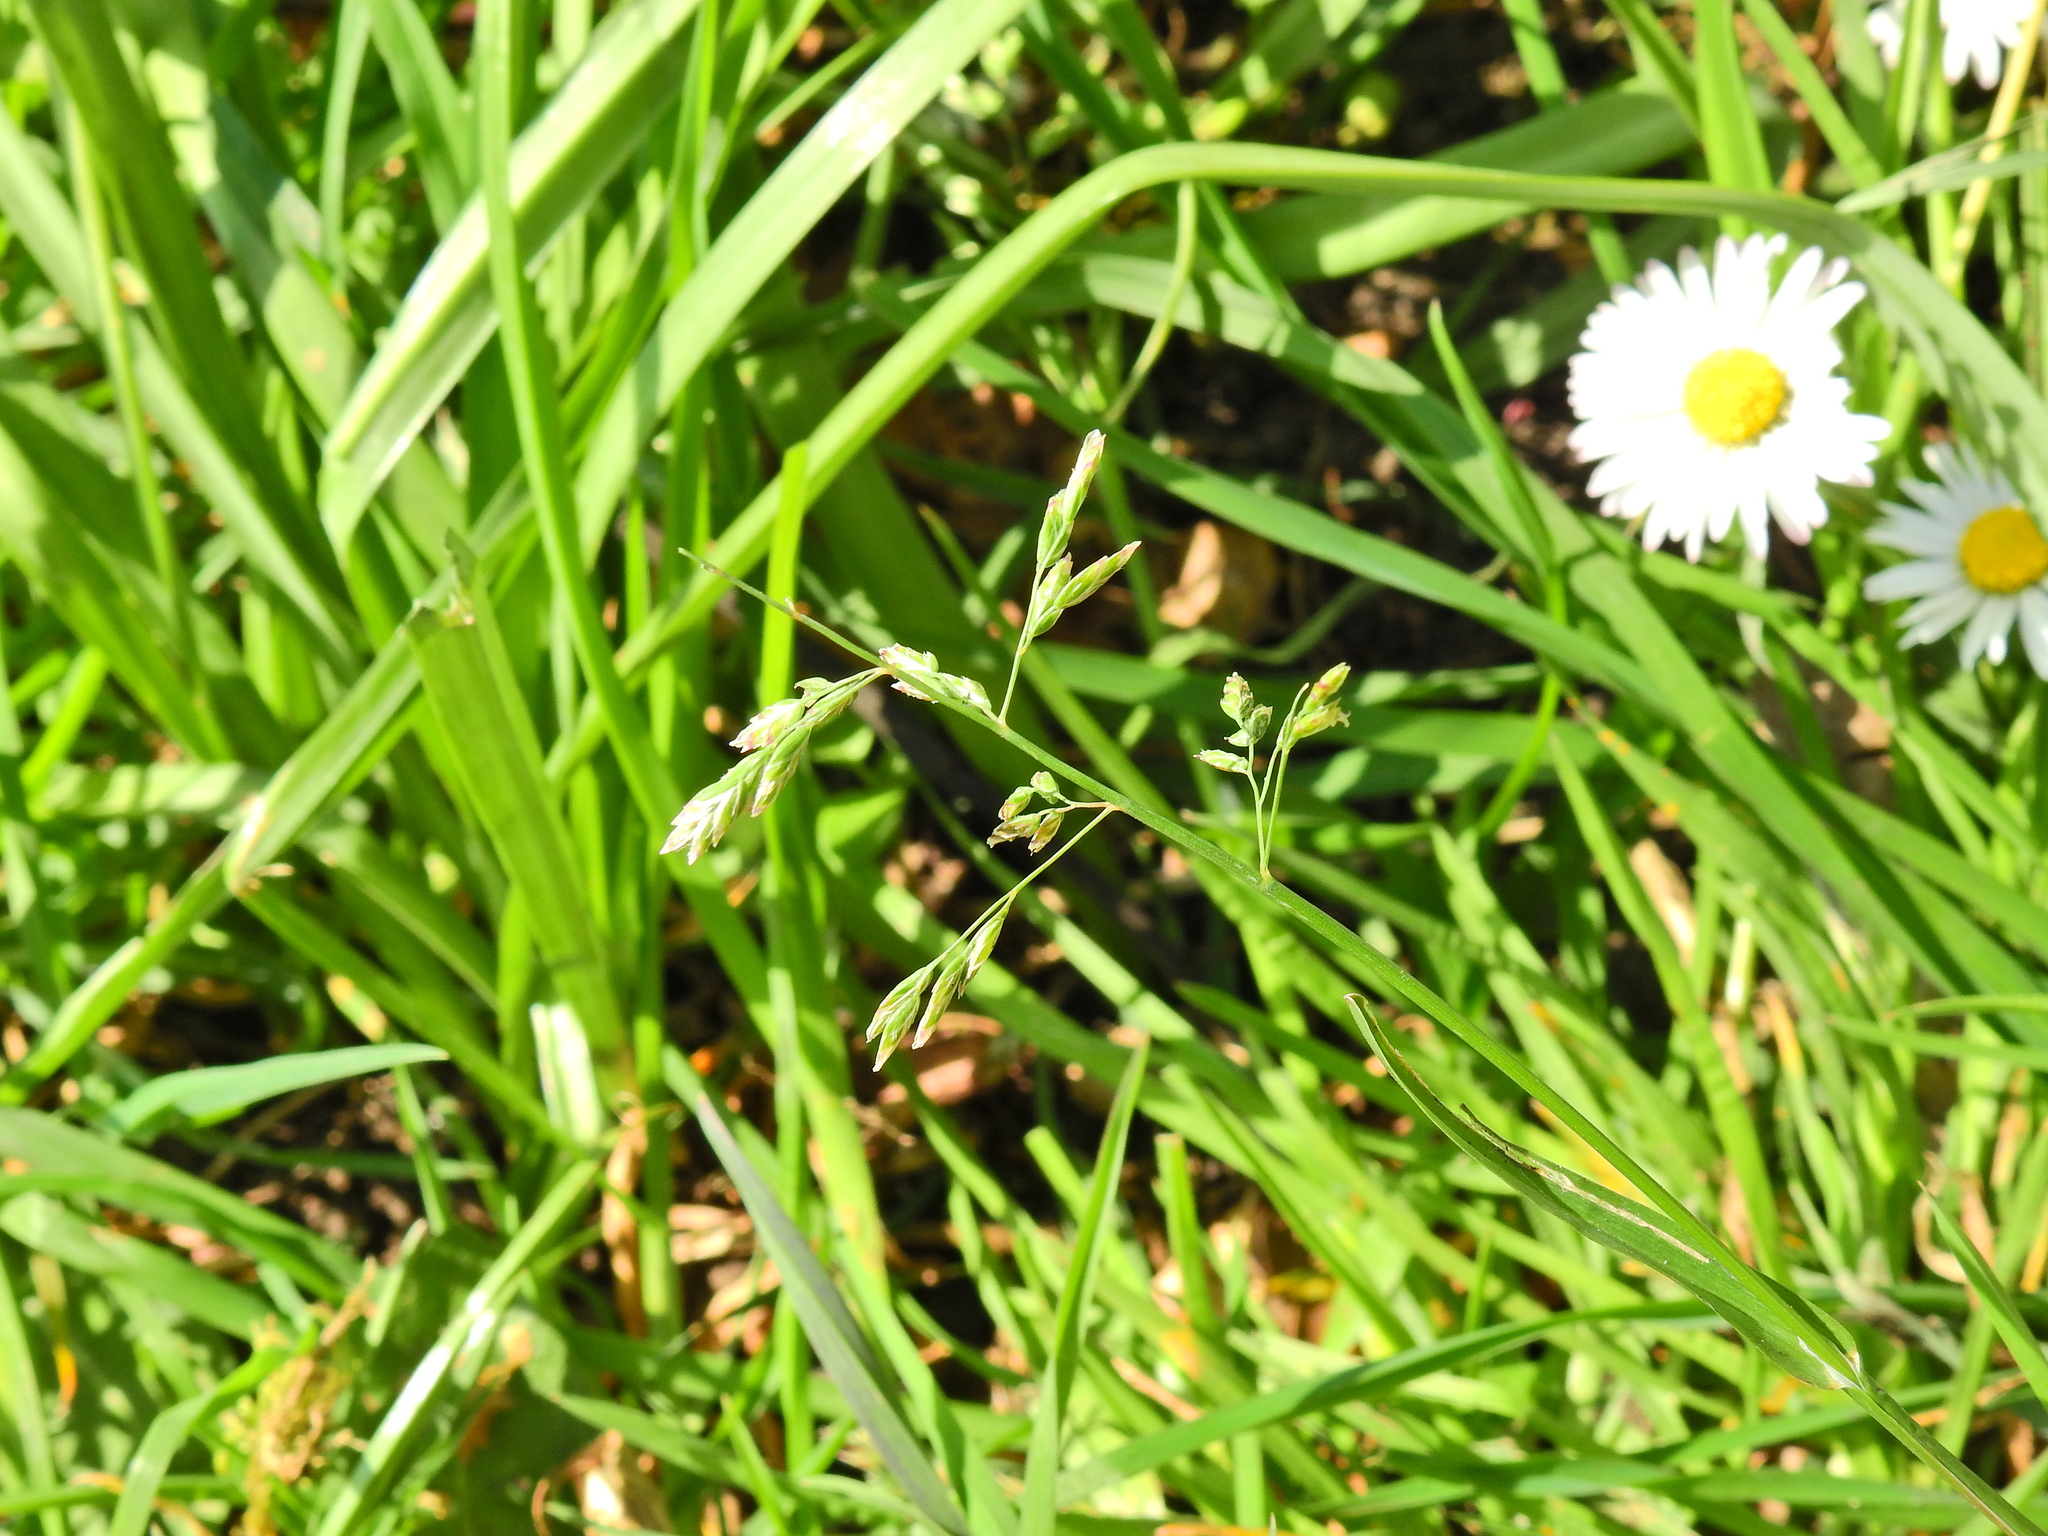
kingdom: Plantae
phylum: Tracheophyta
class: Liliopsida
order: Poales
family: Poaceae
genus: Poa
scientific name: Poa annua
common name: Annual bluegrass
